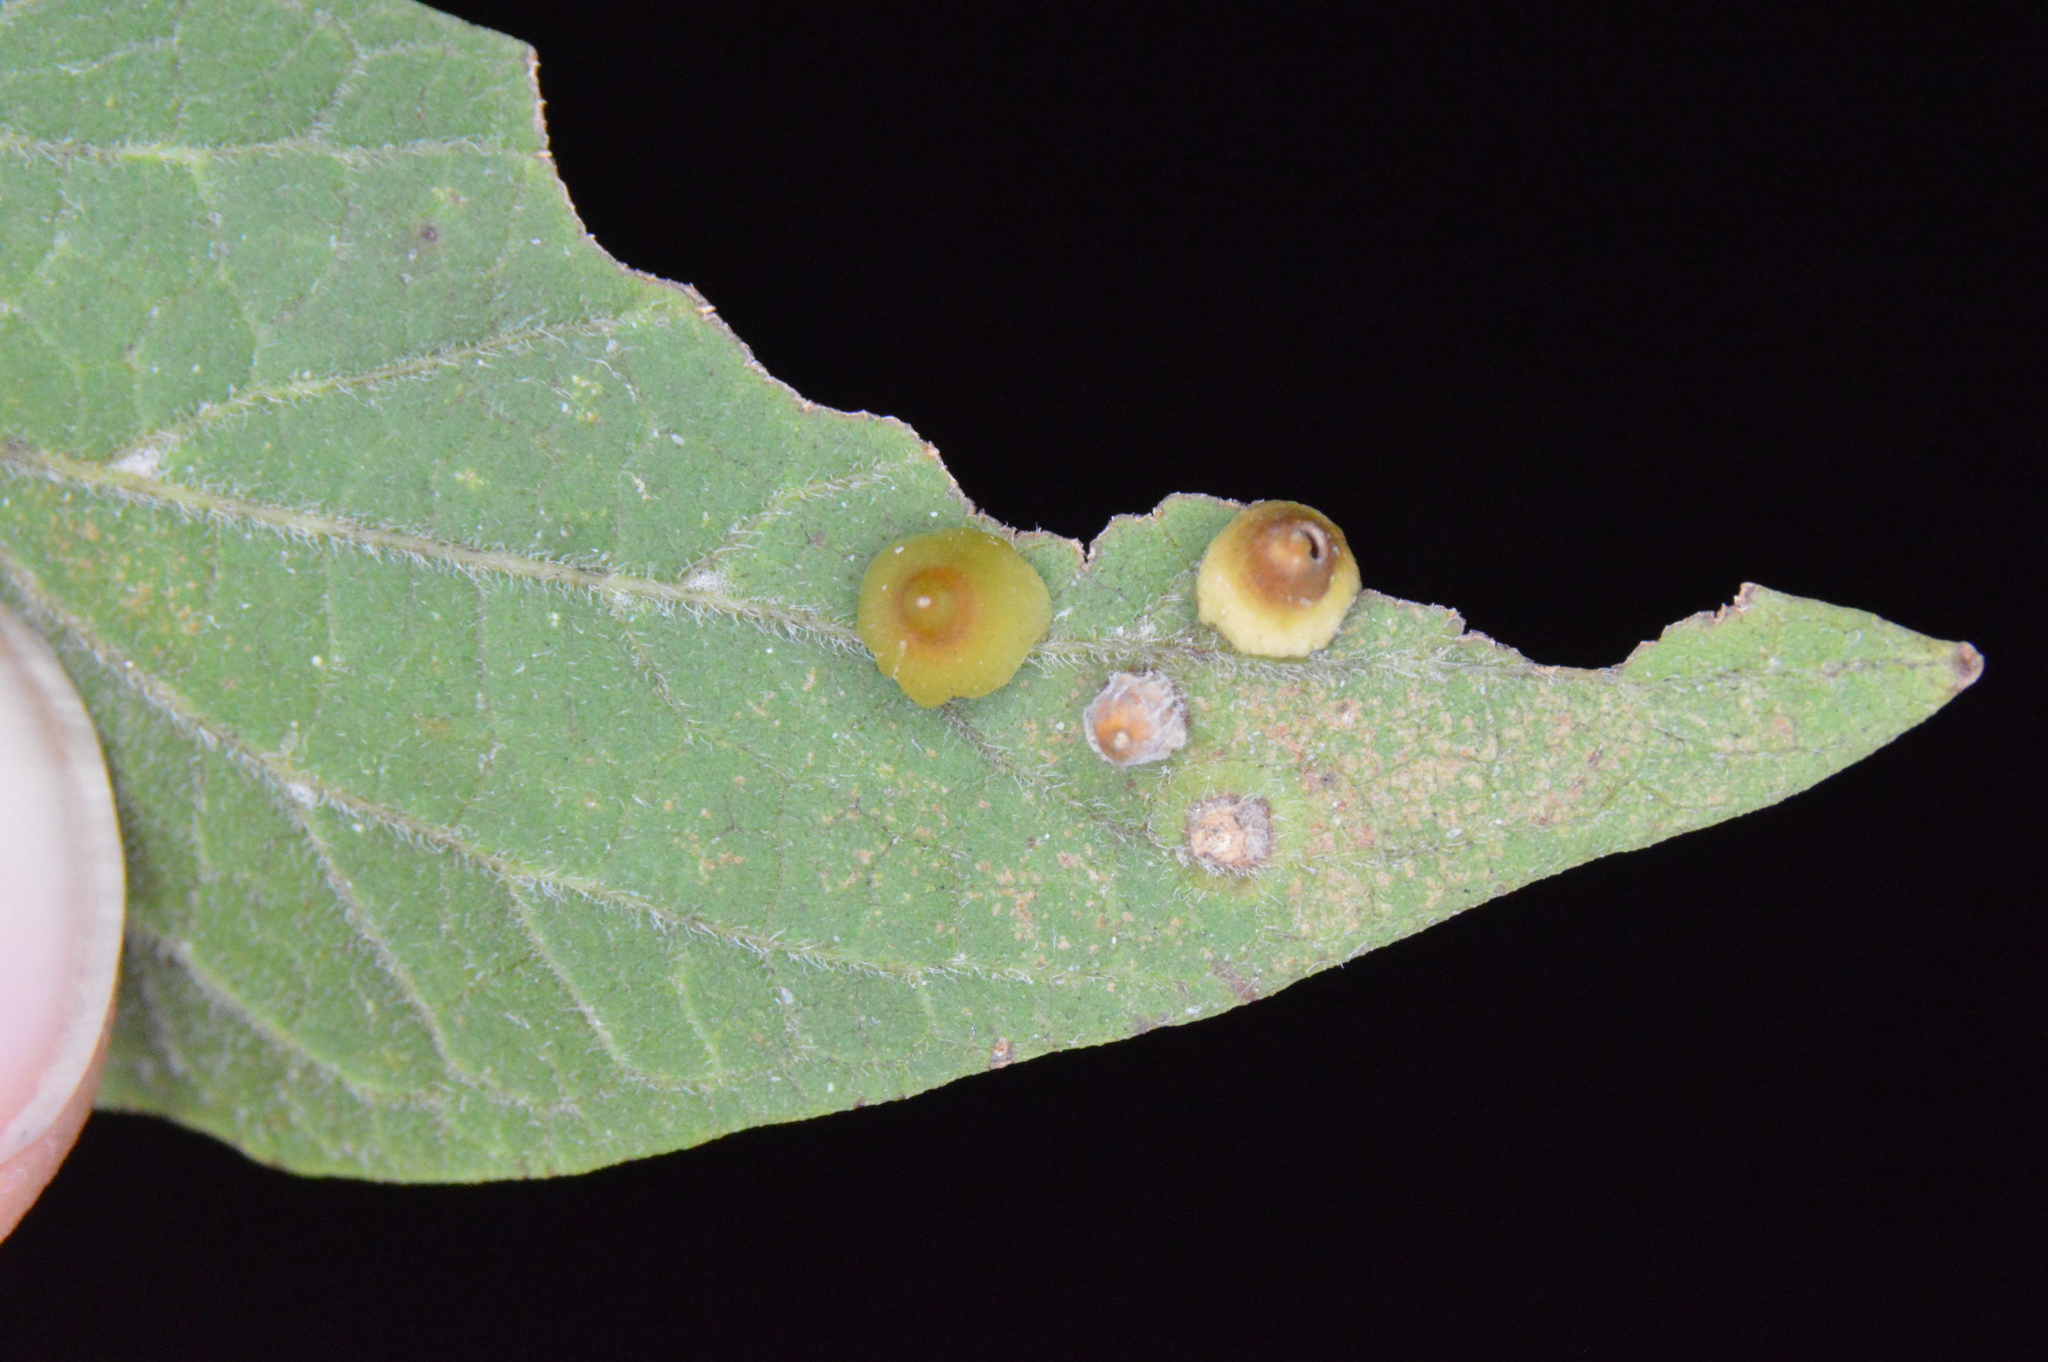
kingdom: Animalia
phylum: Arthropoda
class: Insecta
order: Diptera
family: Cecidomyiidae
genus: Celticecis
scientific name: Celticecis spiniformis
